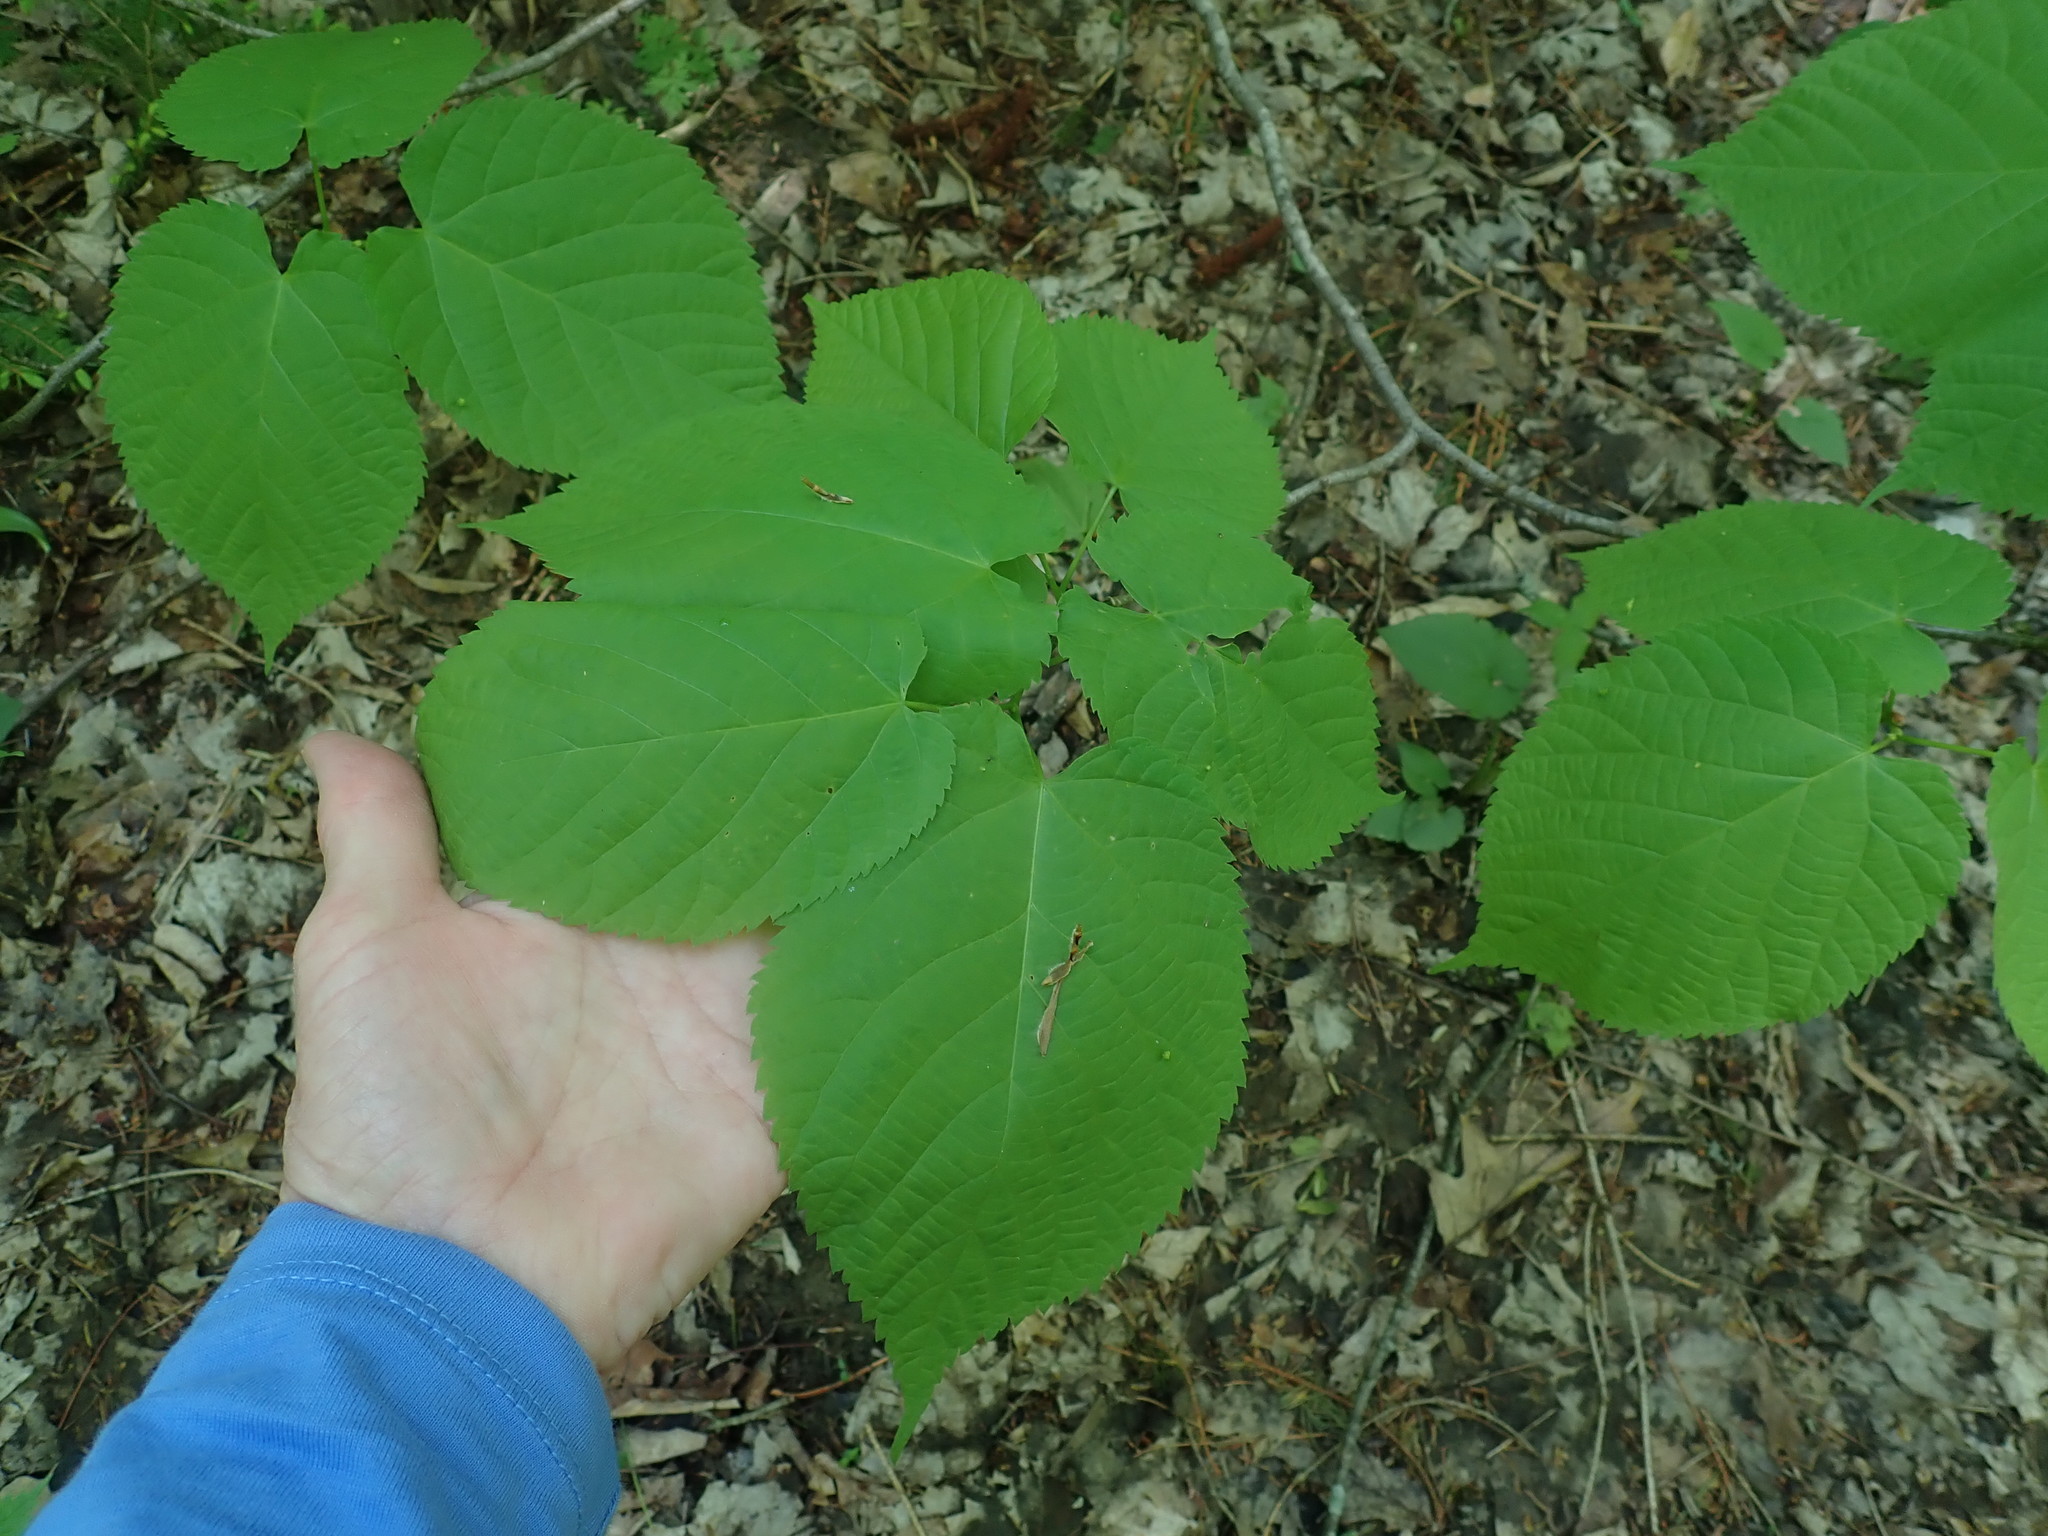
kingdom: Plantae
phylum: Tracheophyta
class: Magnoliopsida
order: Malvales
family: Malvaceae
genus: Tilia
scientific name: Tilia americana
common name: Basswood
